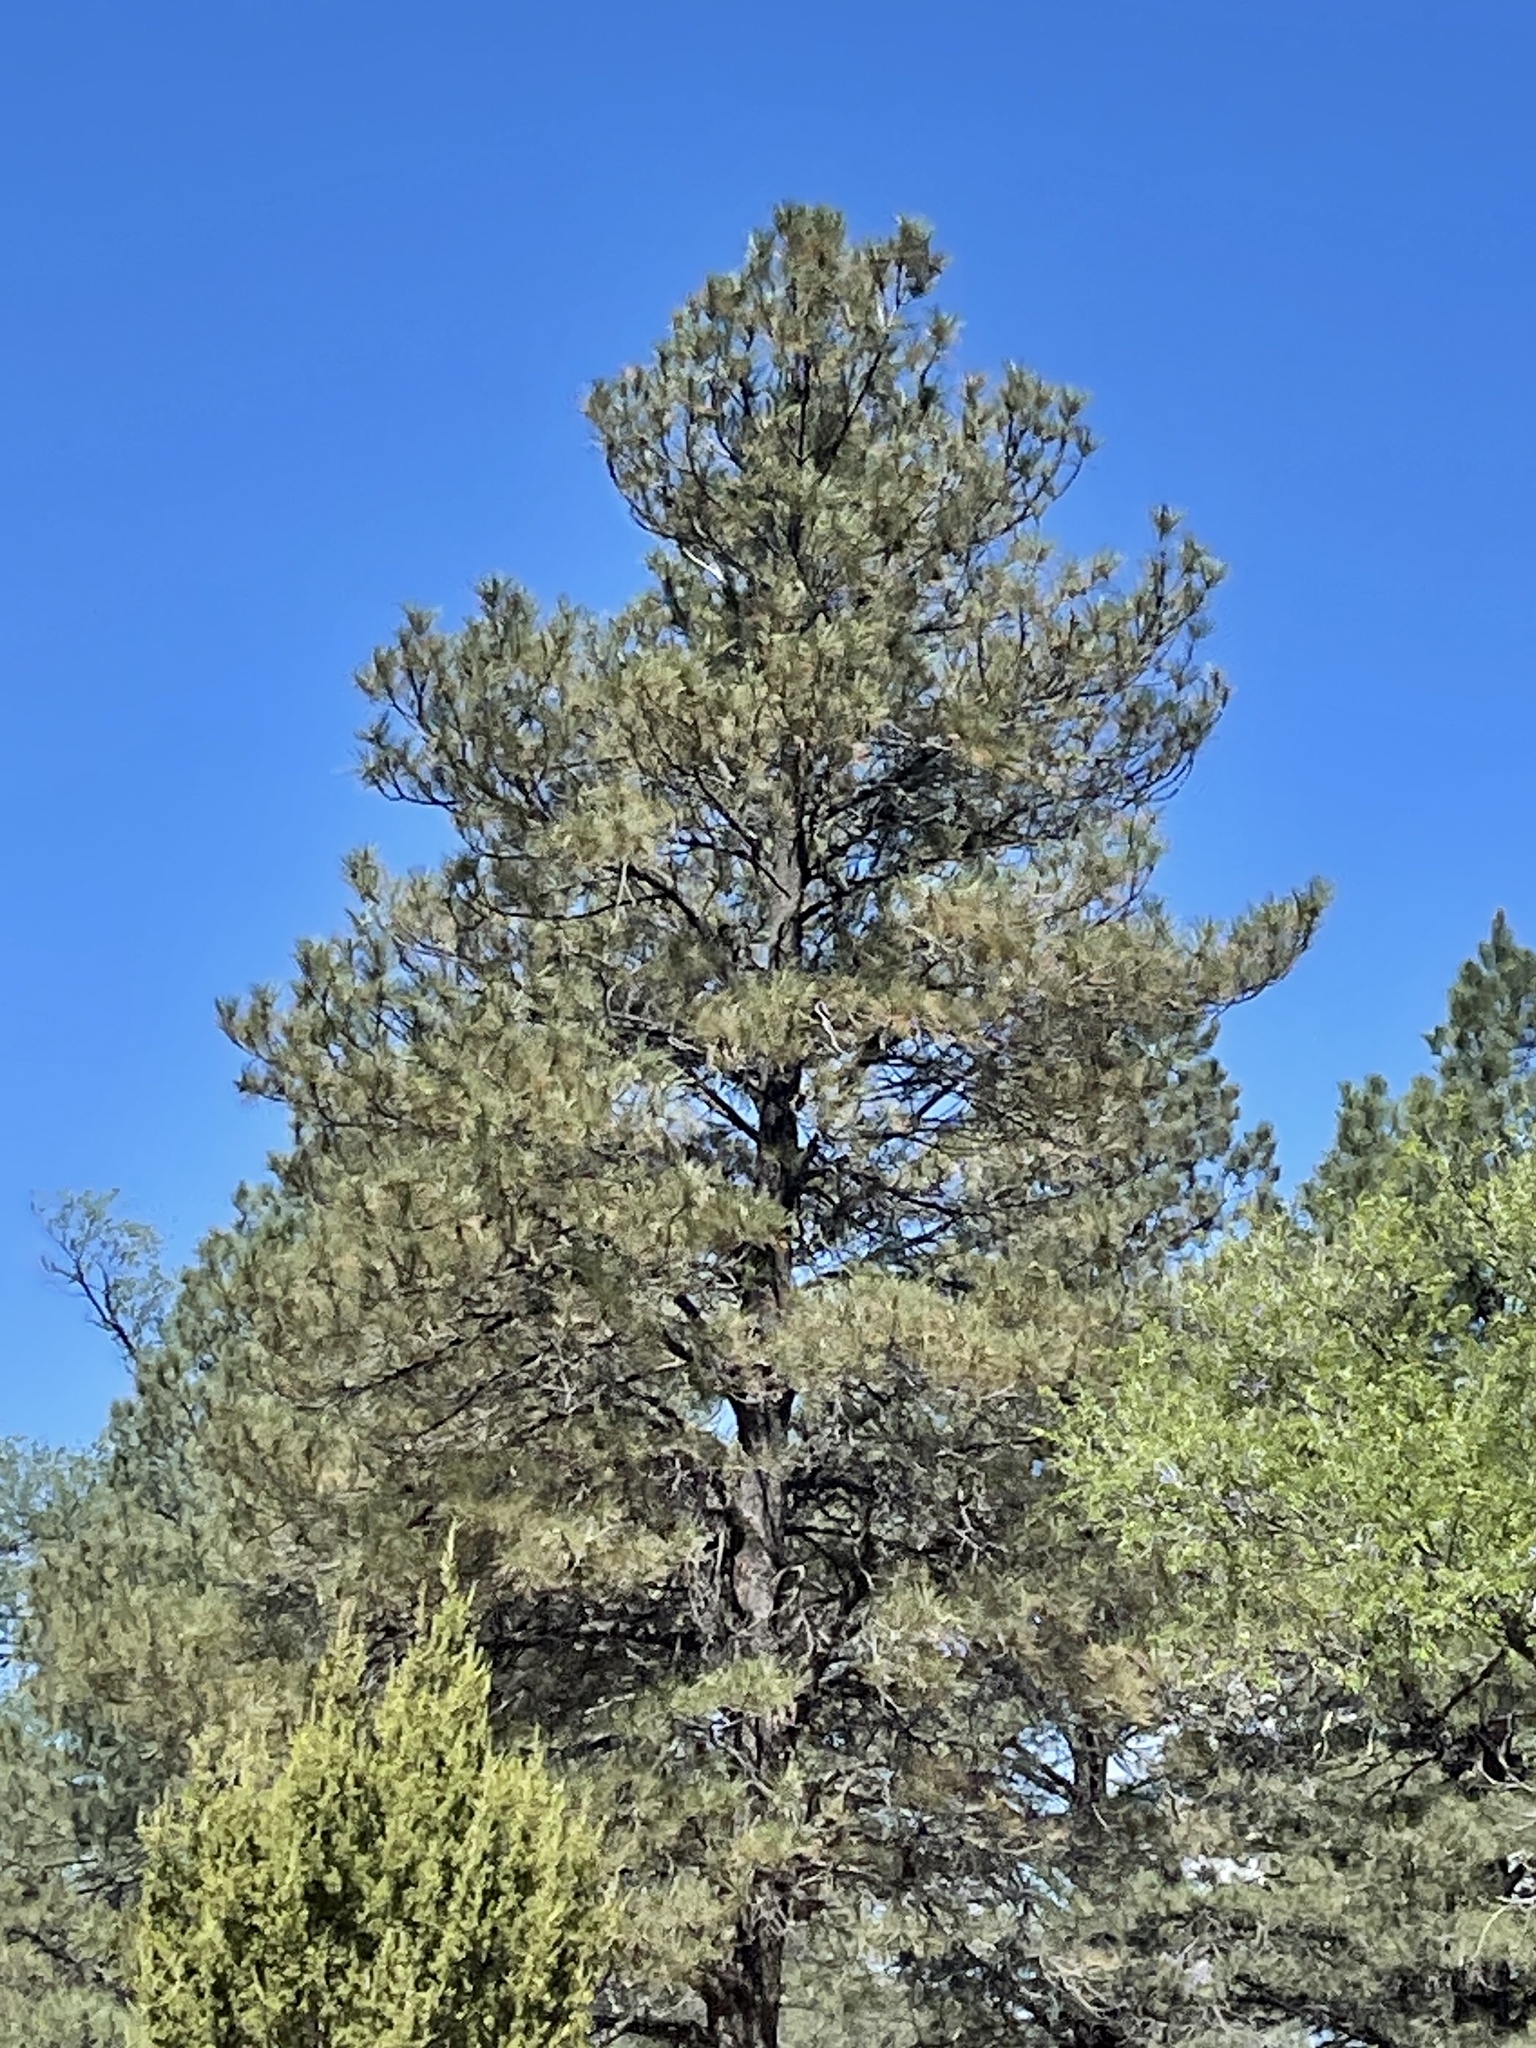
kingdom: Plantae
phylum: Tracheophyta
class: Pinopsida
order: Pinales
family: Pinaceae
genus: Pinus
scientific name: Pinus ponderosa
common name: Western yellow-pine
